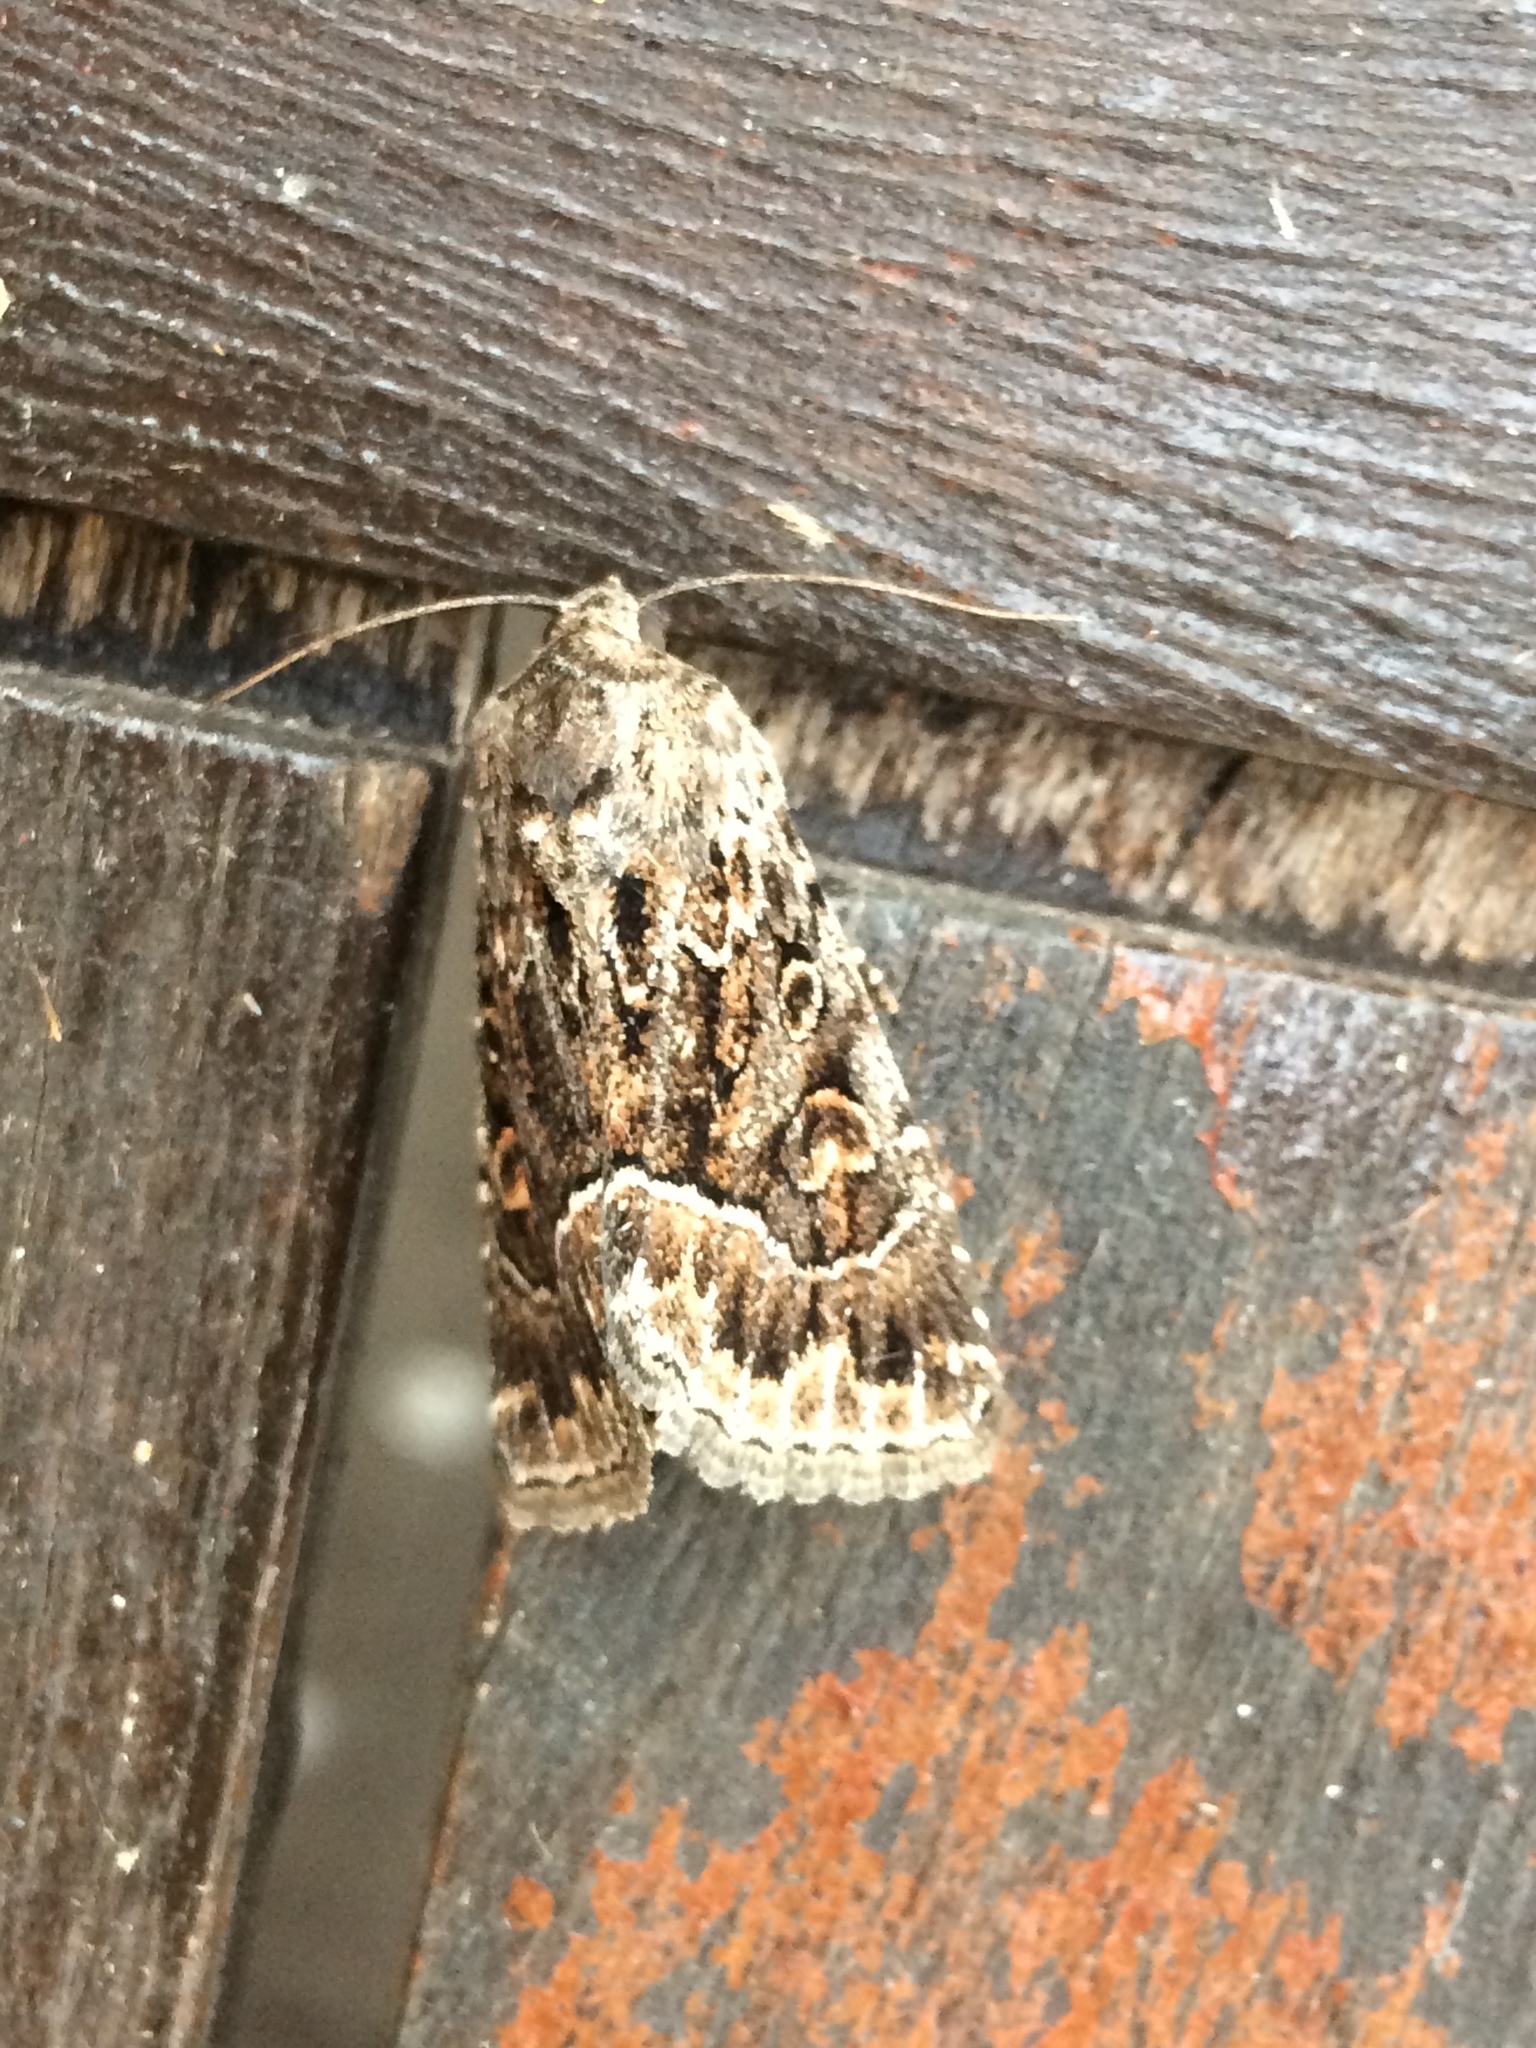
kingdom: Animalia
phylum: Arthropoda
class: Insecta
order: Lepidoptera
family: Noctuidae
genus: Thalpophila
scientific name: Thalpophila matura
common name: Straw underwing
